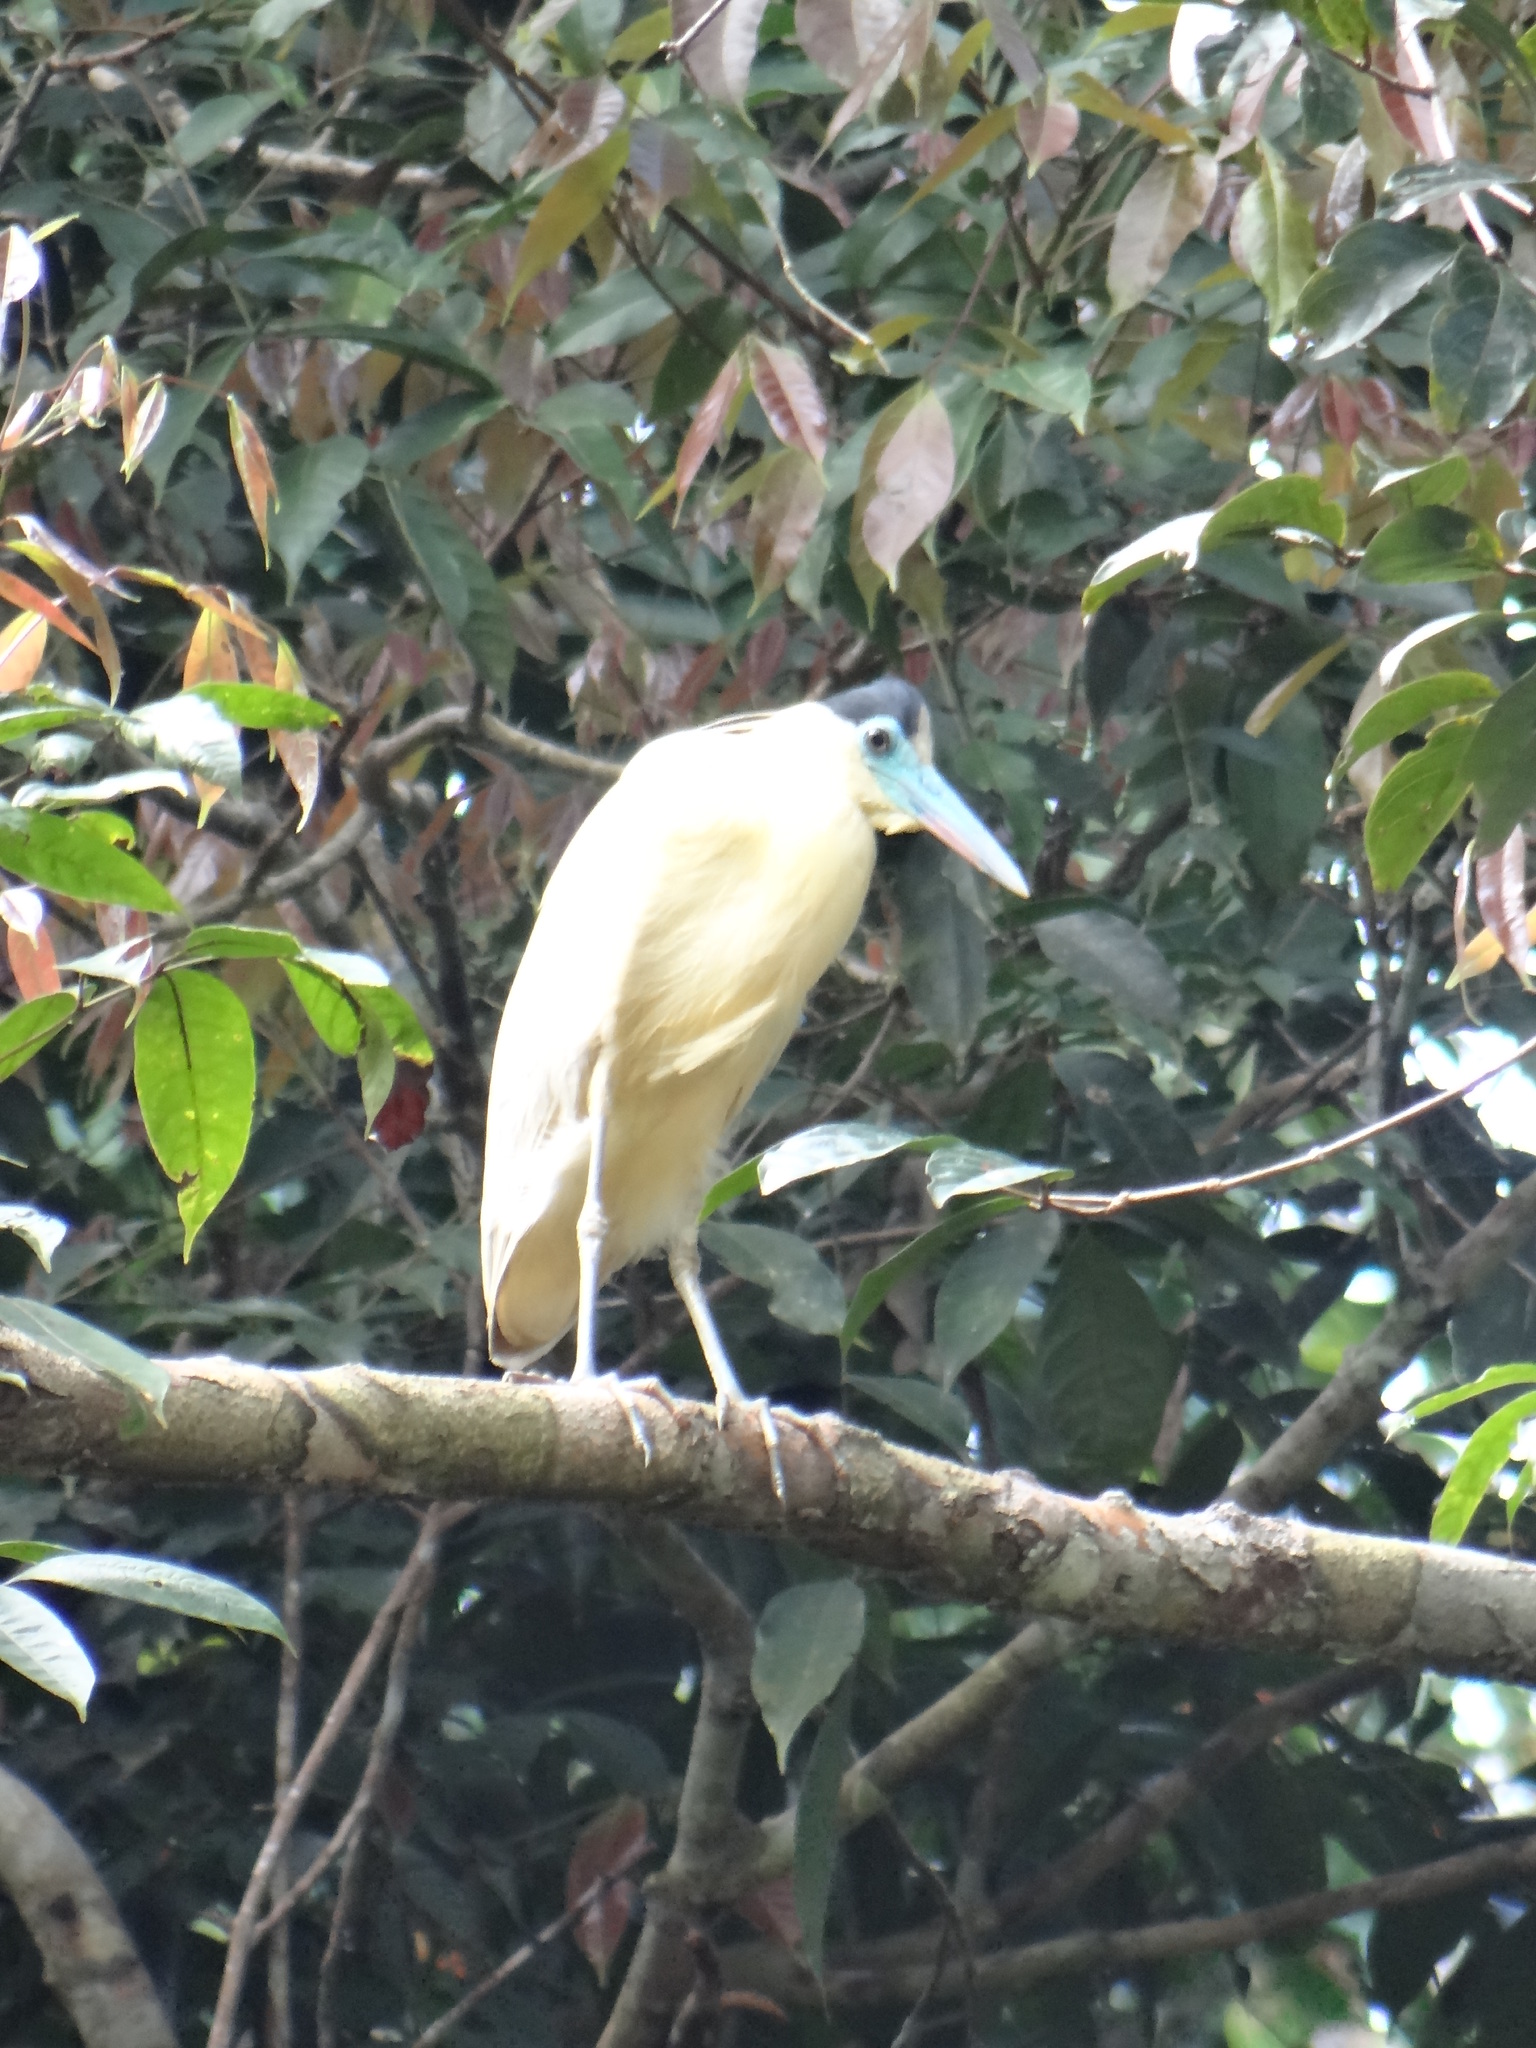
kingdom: Animalia
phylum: Chordata
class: Aves
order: Pelecaniformes
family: Ardeidae
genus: Pilherodius
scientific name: Pilherodius pileatus
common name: Capped heron
